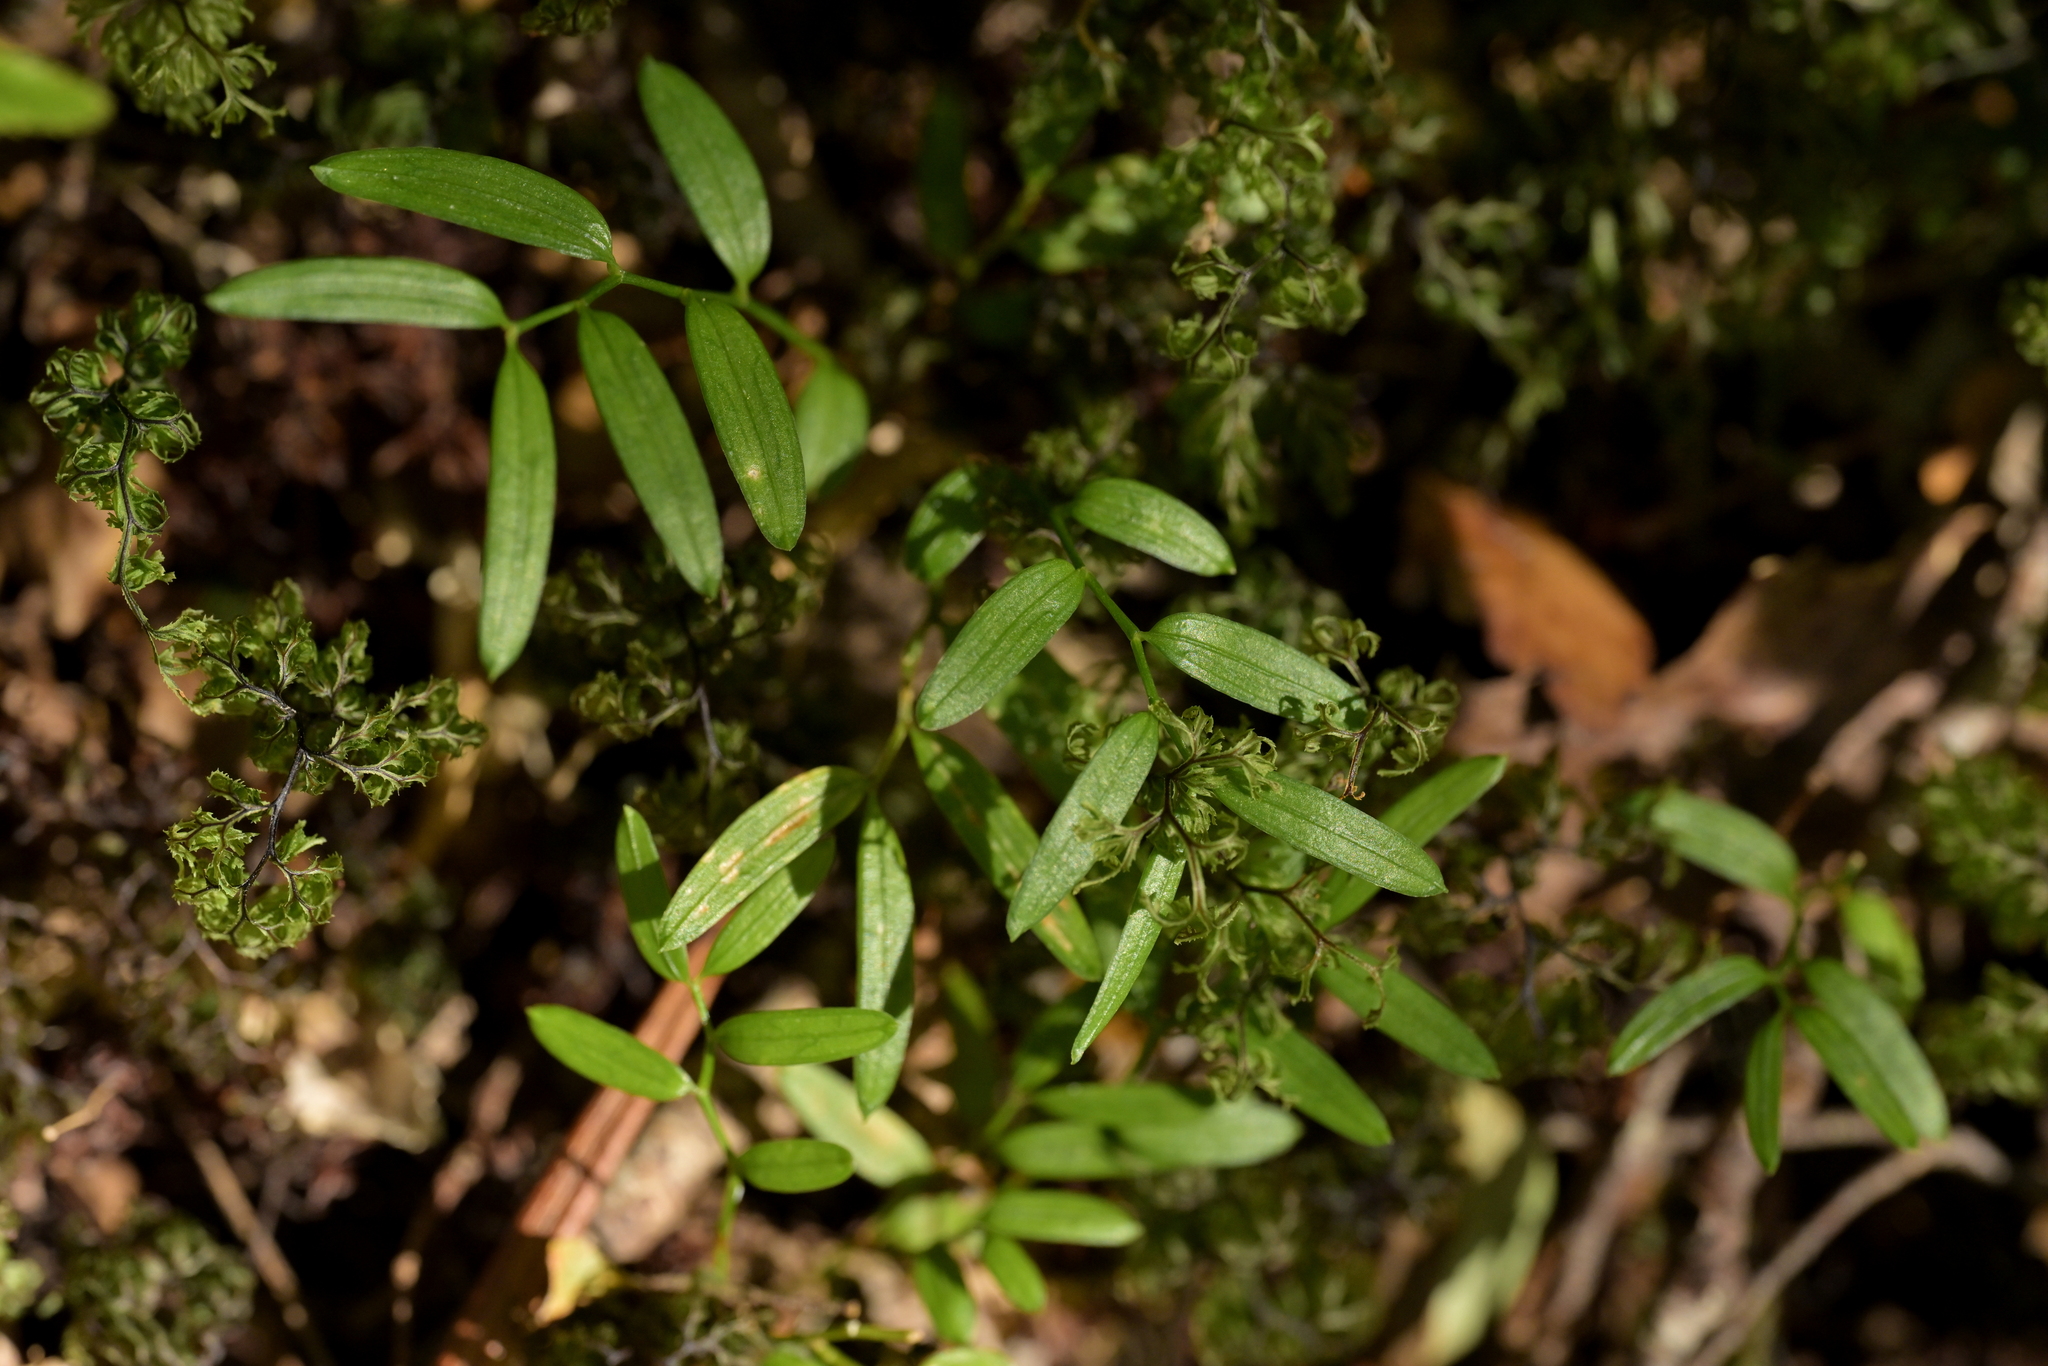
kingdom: Plantae
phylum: Tracheophyta
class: Liliopsida
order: Liliales
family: Alstroemeriaceae
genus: Luzuriaga
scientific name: Luzuriaga parviflora
